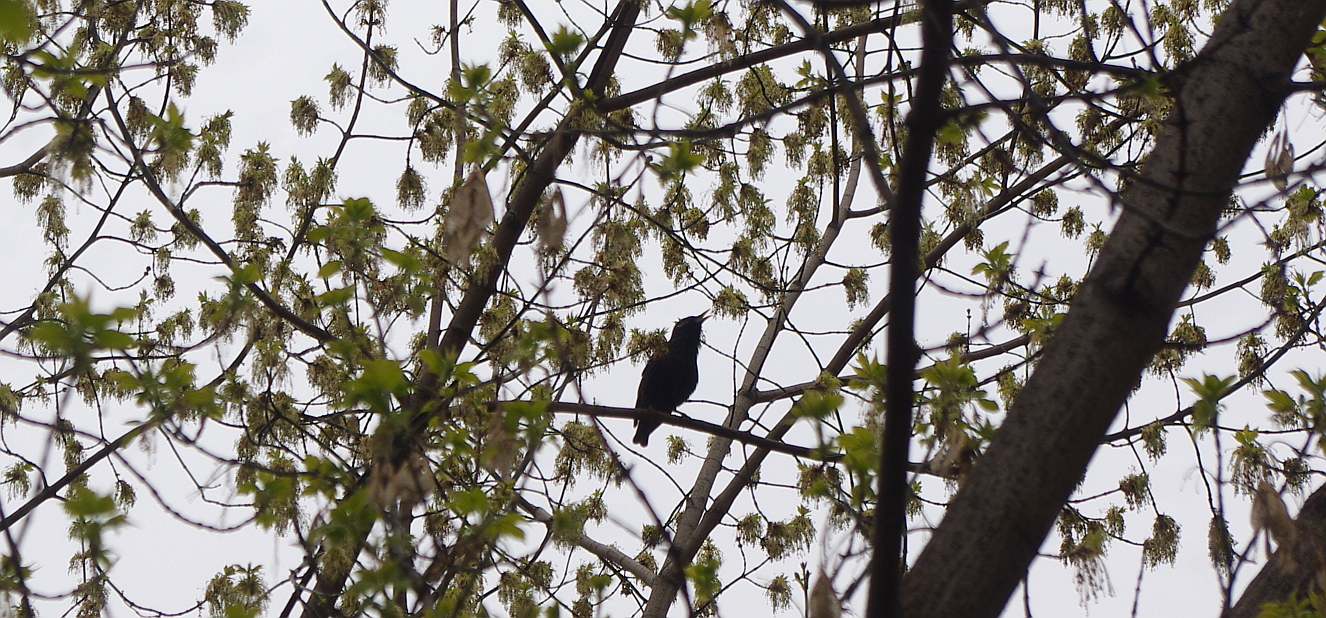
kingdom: Plantae
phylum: Tracheophyta
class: Magnoliopsida
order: Sapindales
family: Sapindaceae
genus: Acer
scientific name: Acer negundo
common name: Ashleaf maple
